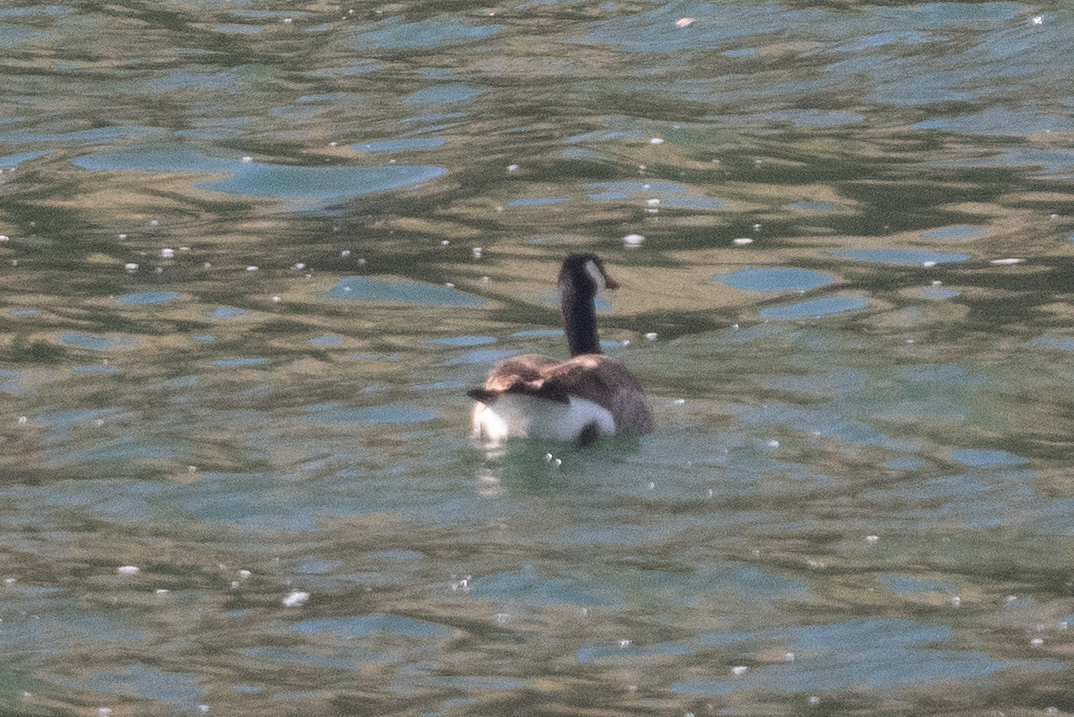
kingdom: Animalia
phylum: Chordata
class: Aves
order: Anseriformes
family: Anatidae
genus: Branta
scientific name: Branta canadensis
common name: Canada goose
